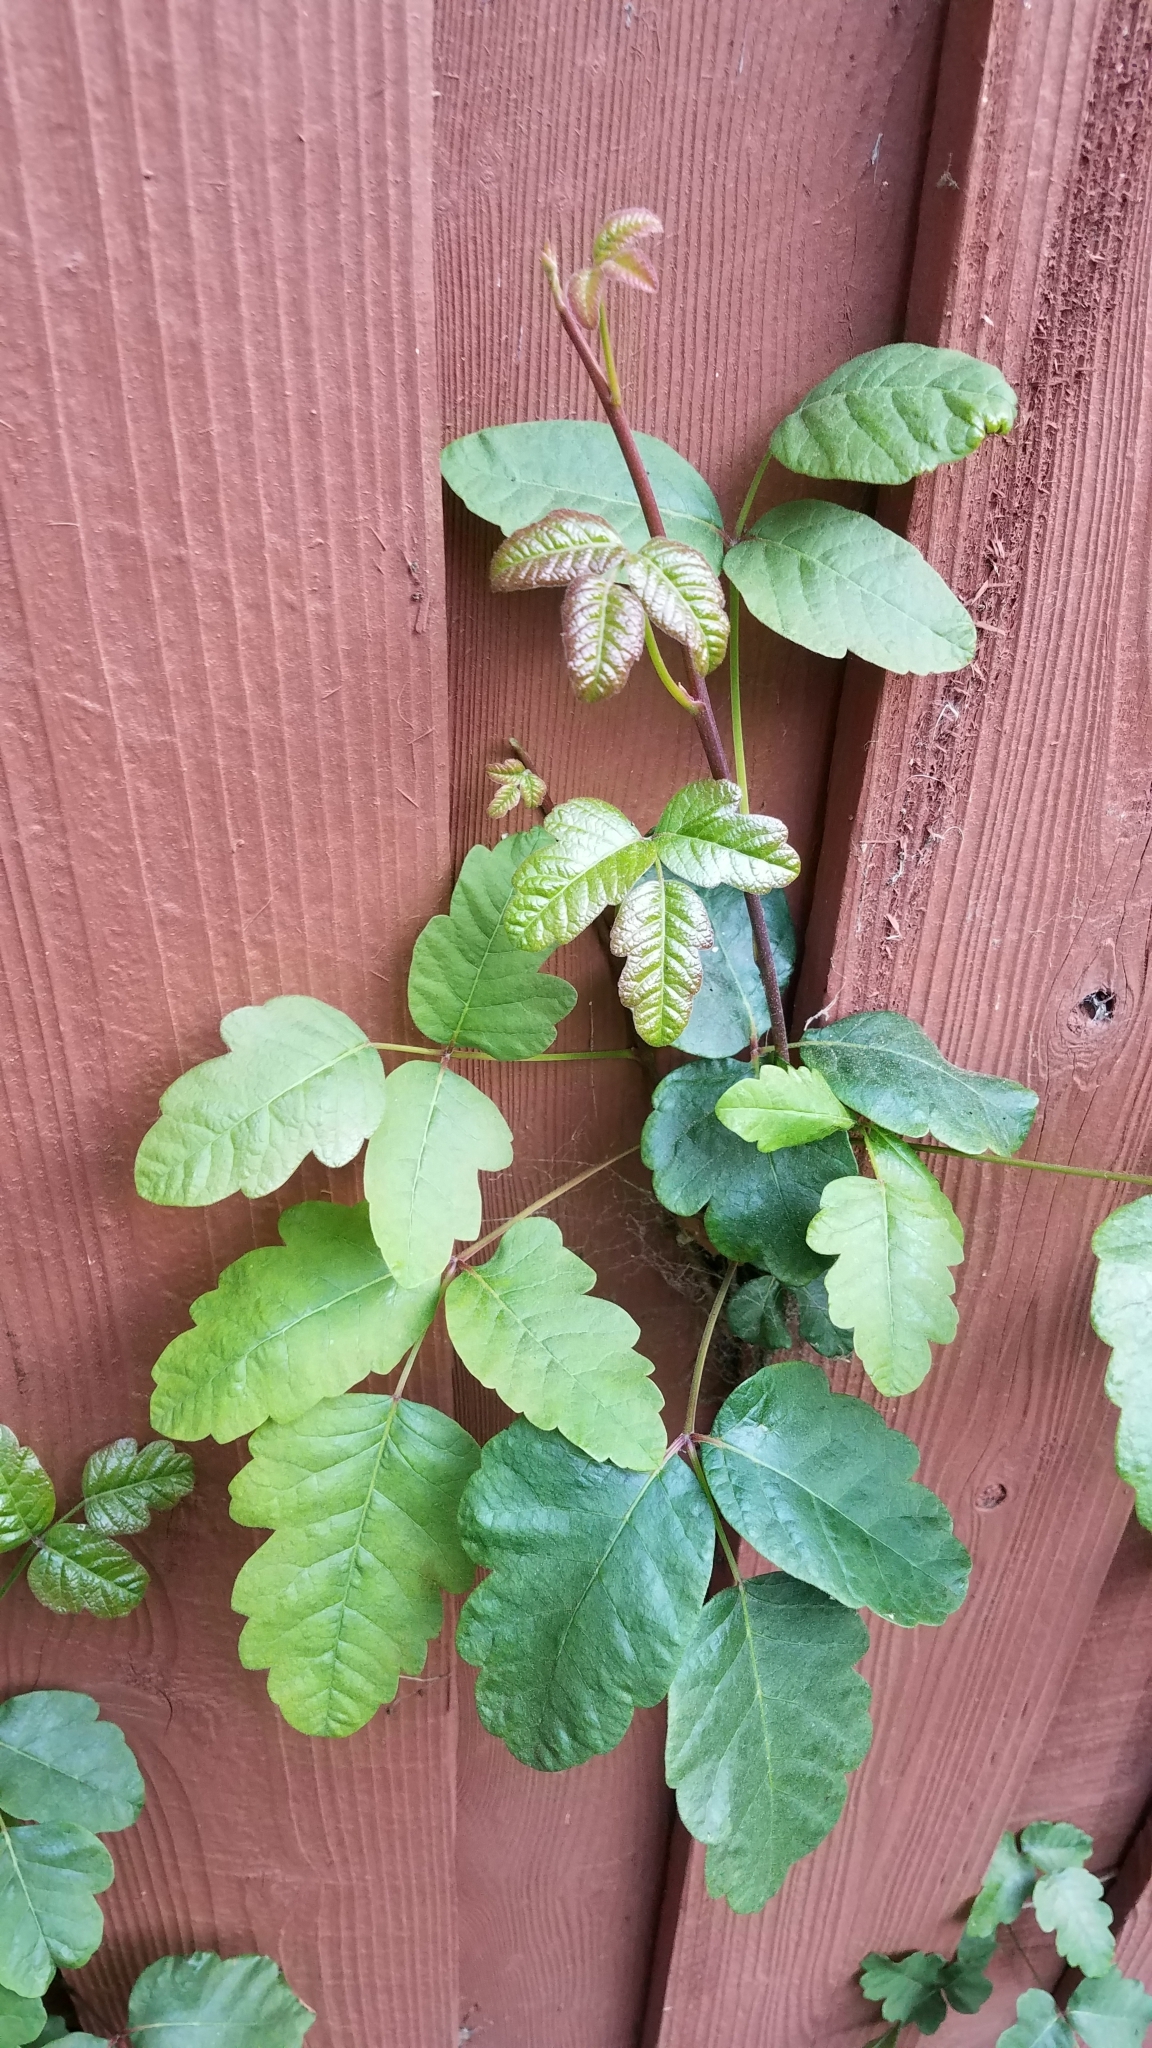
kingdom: Plantae
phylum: Tracheophyta
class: Magnoliopsida
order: Sapindales
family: Anacardiaceae
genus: Toxicodendron
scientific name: Toxicodendron diversilobum
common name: Pacific poison-oak
